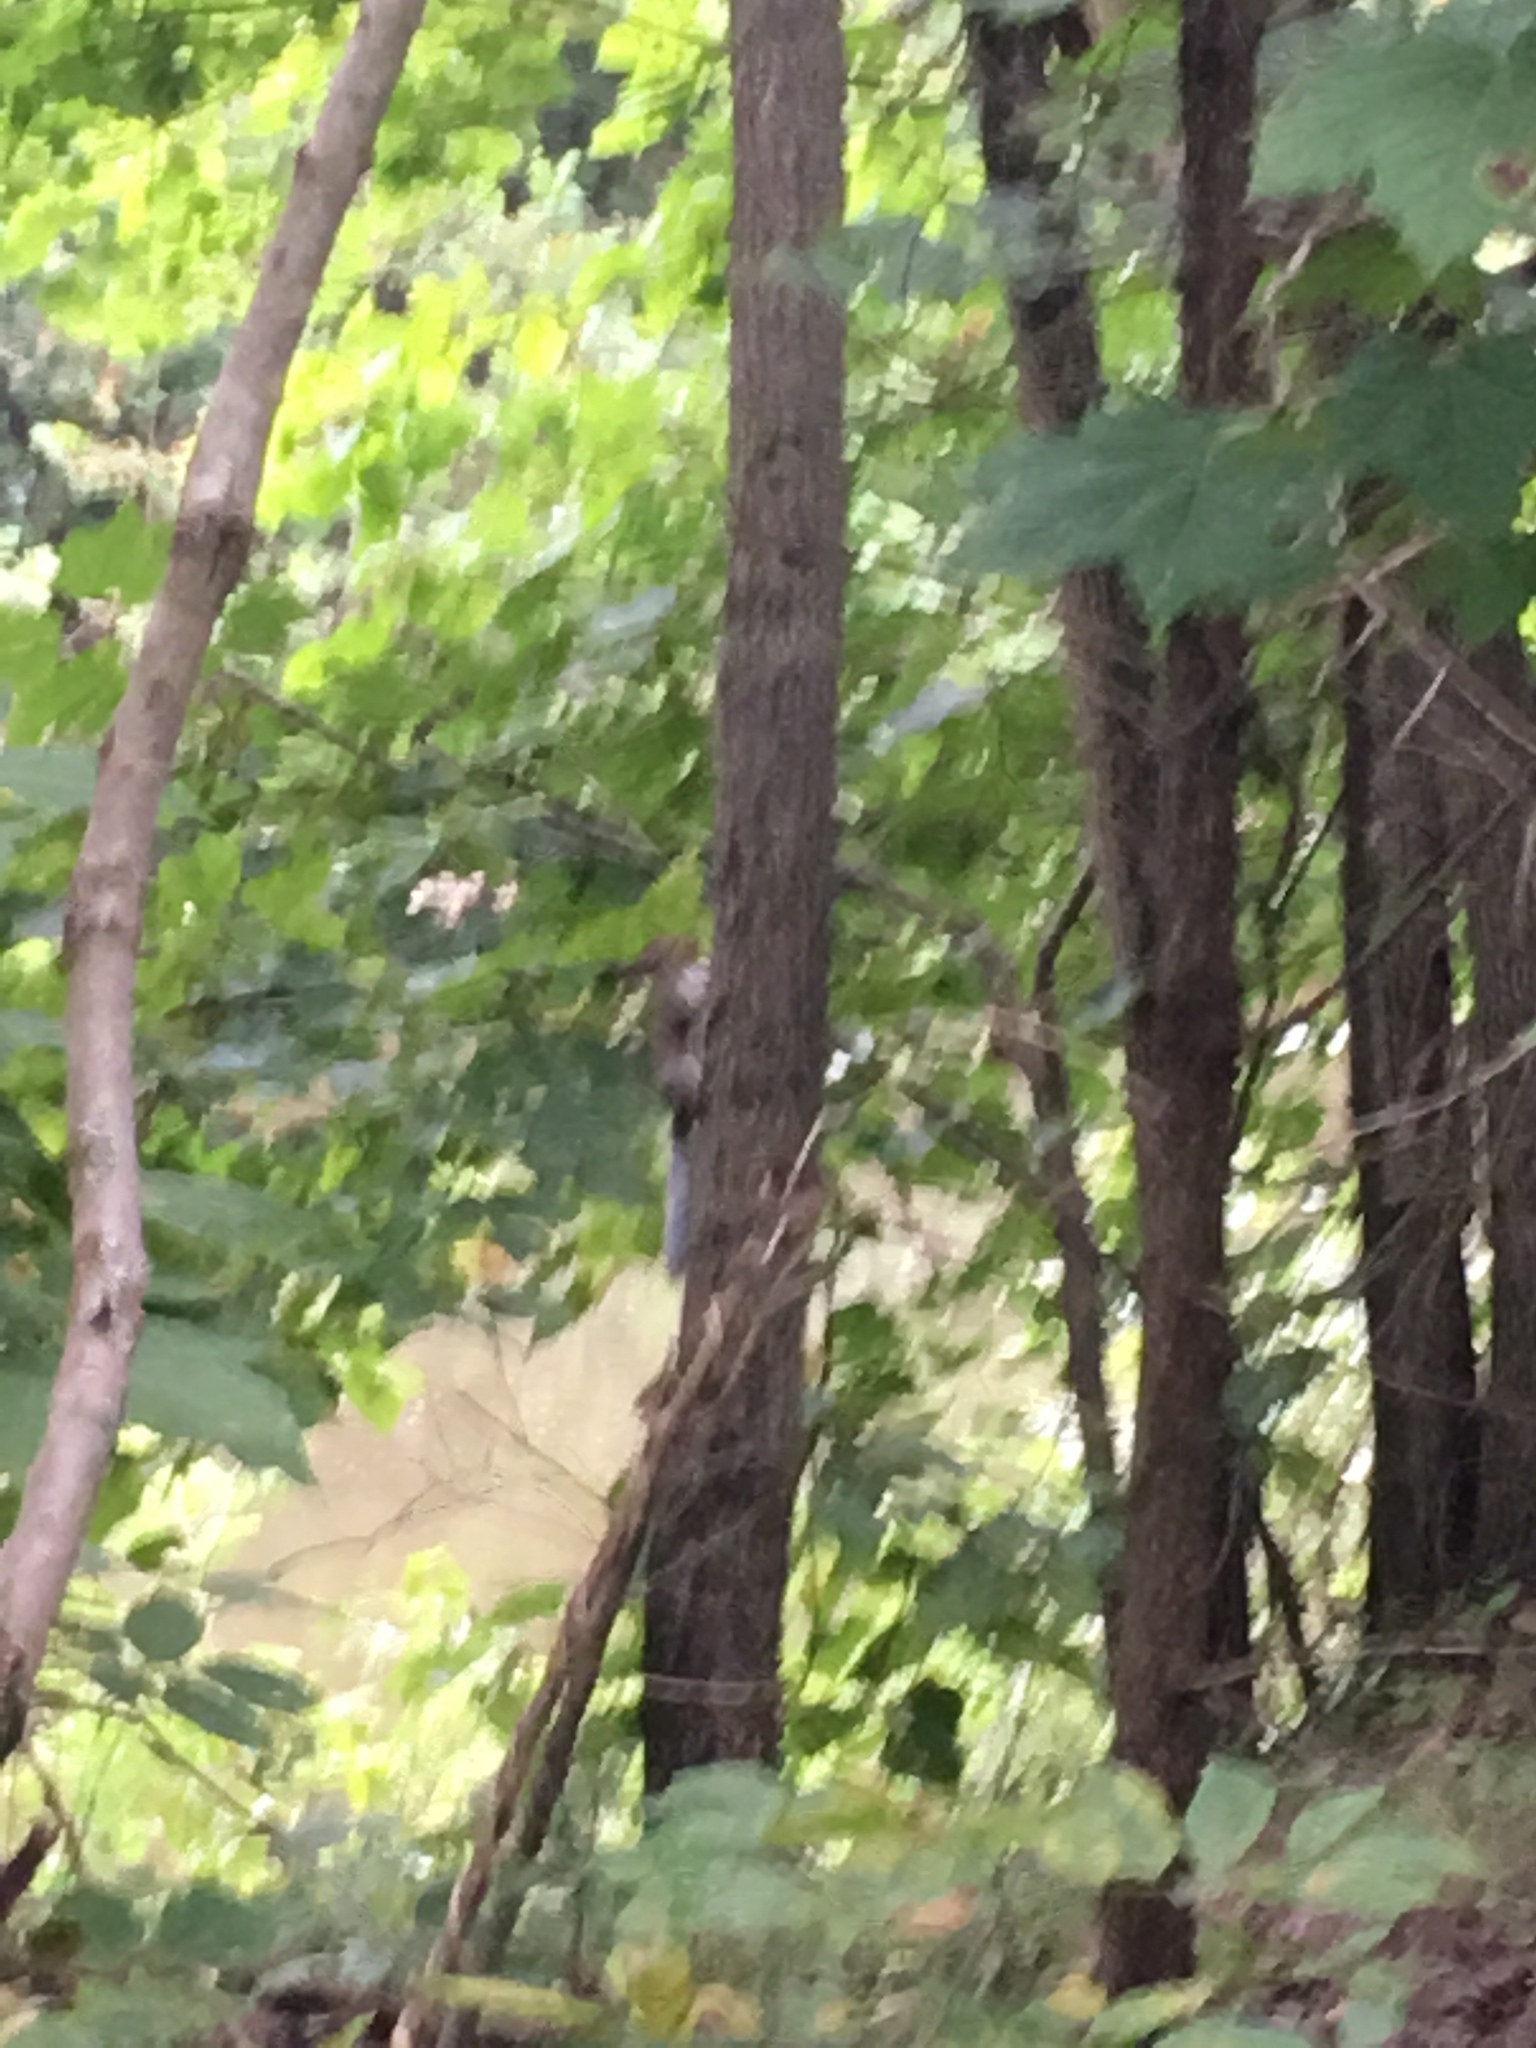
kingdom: Animalia
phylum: Chordata
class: Mammalia
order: Rodentia
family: Sciuridae
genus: Sciurus
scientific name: Sciurus carolinensis
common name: Eastern gray squirrel
